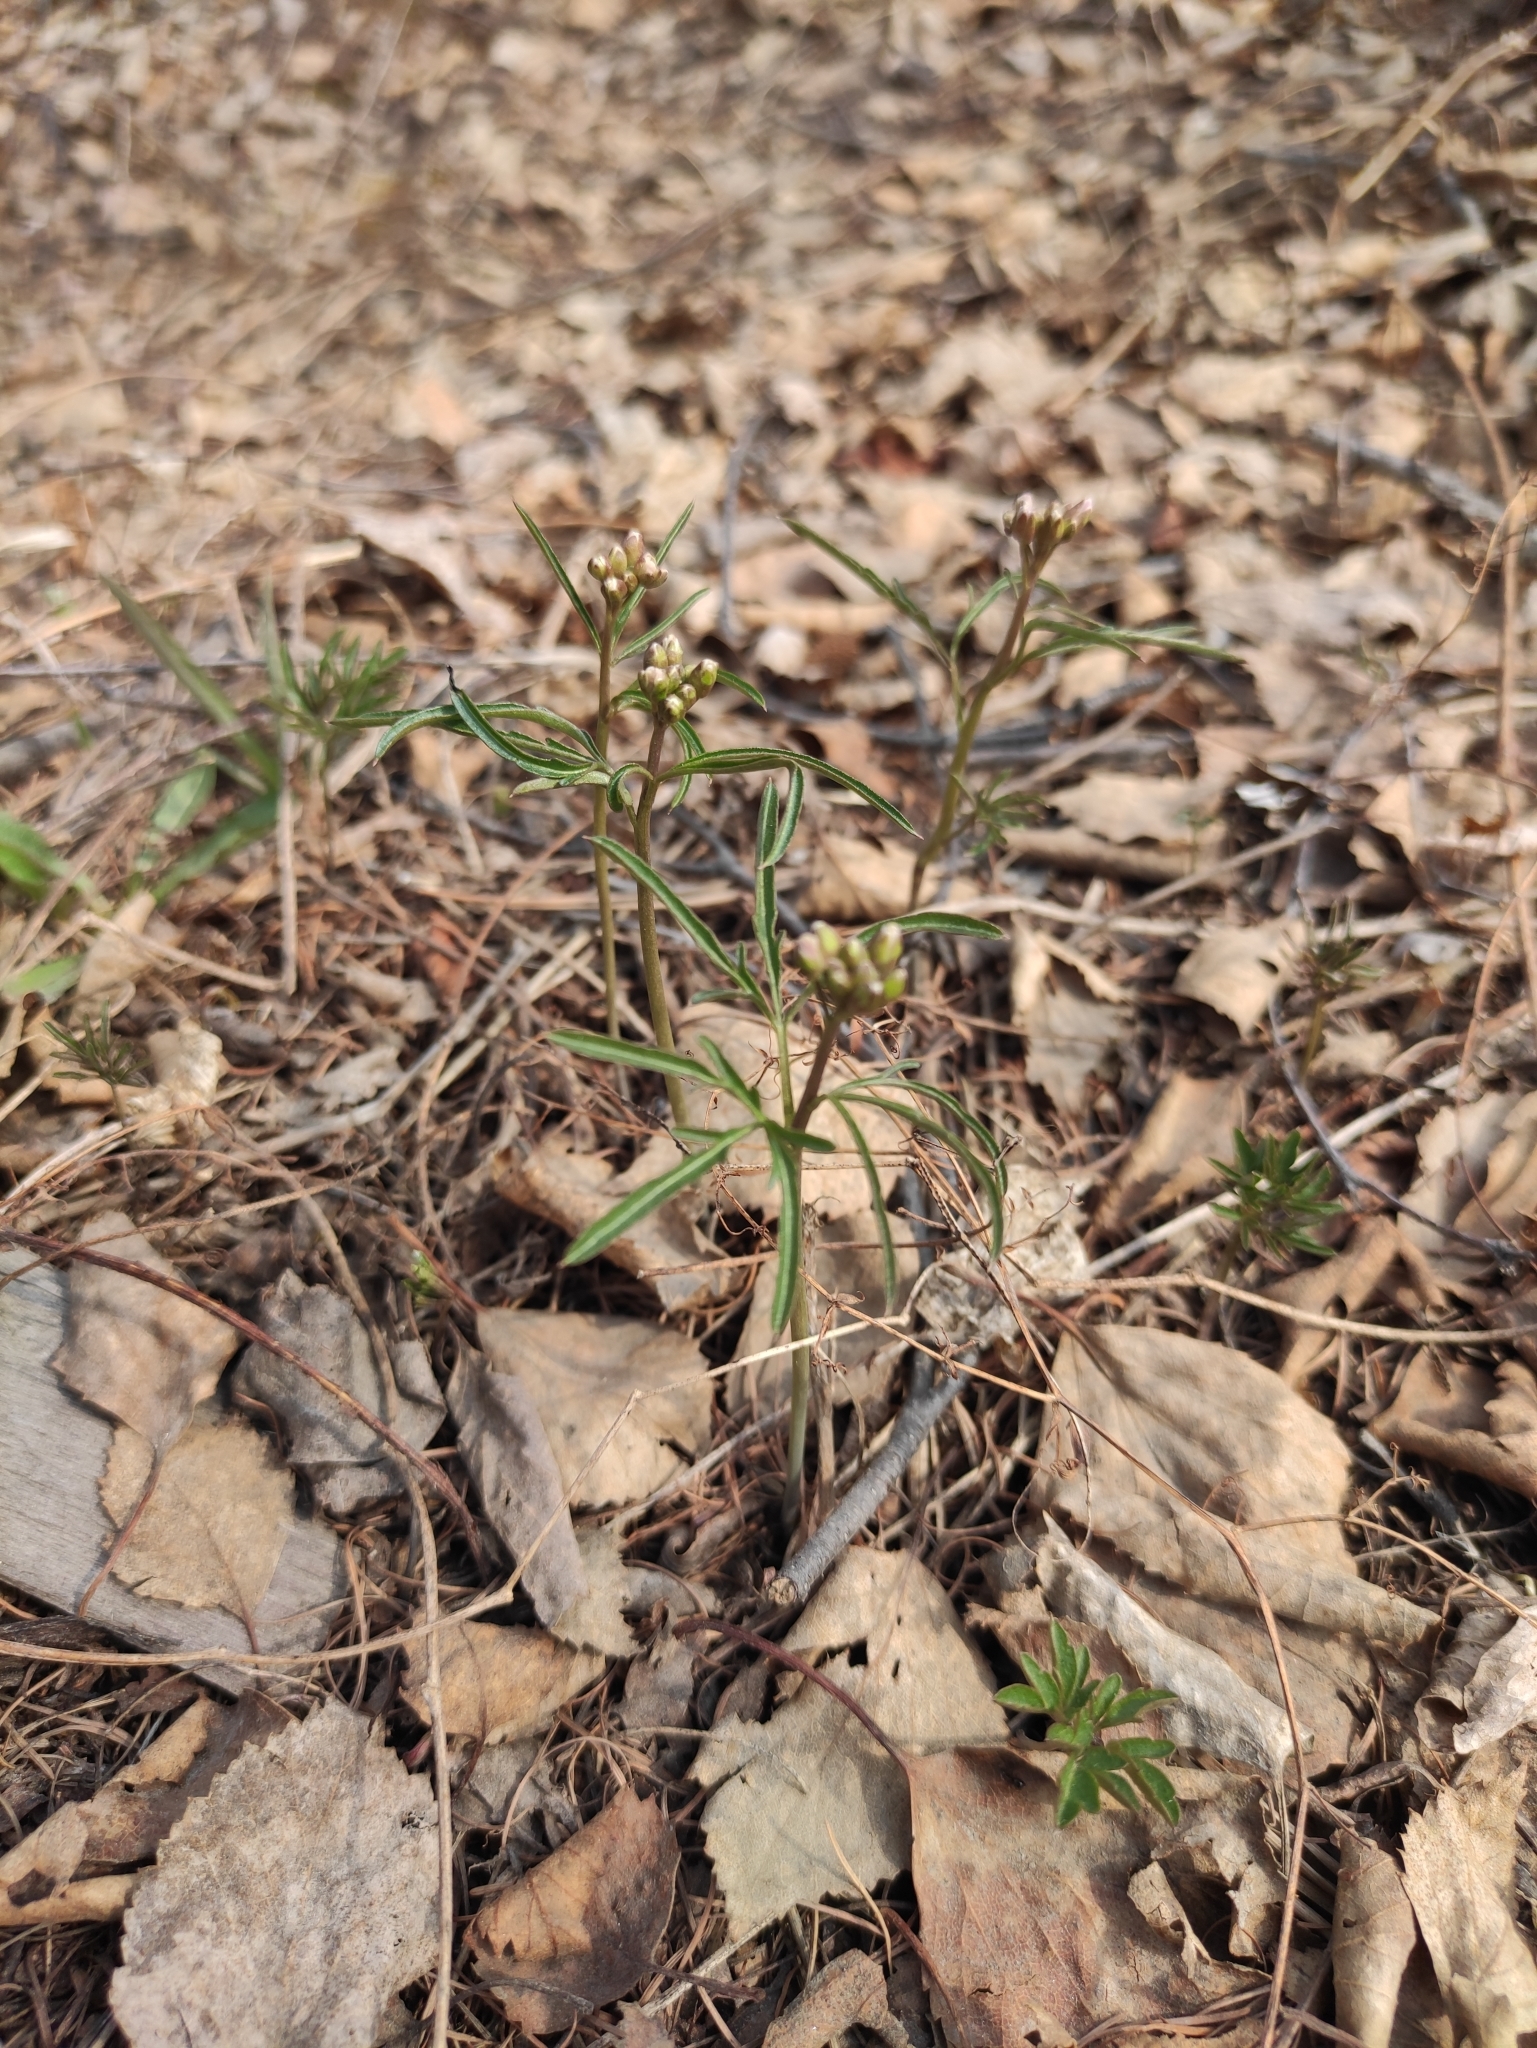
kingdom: Plantae
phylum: Tracheophyta
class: Magnoliopsida
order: Brassicales
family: Brassicaceae
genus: Cardamine
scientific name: Cardamine trifida
